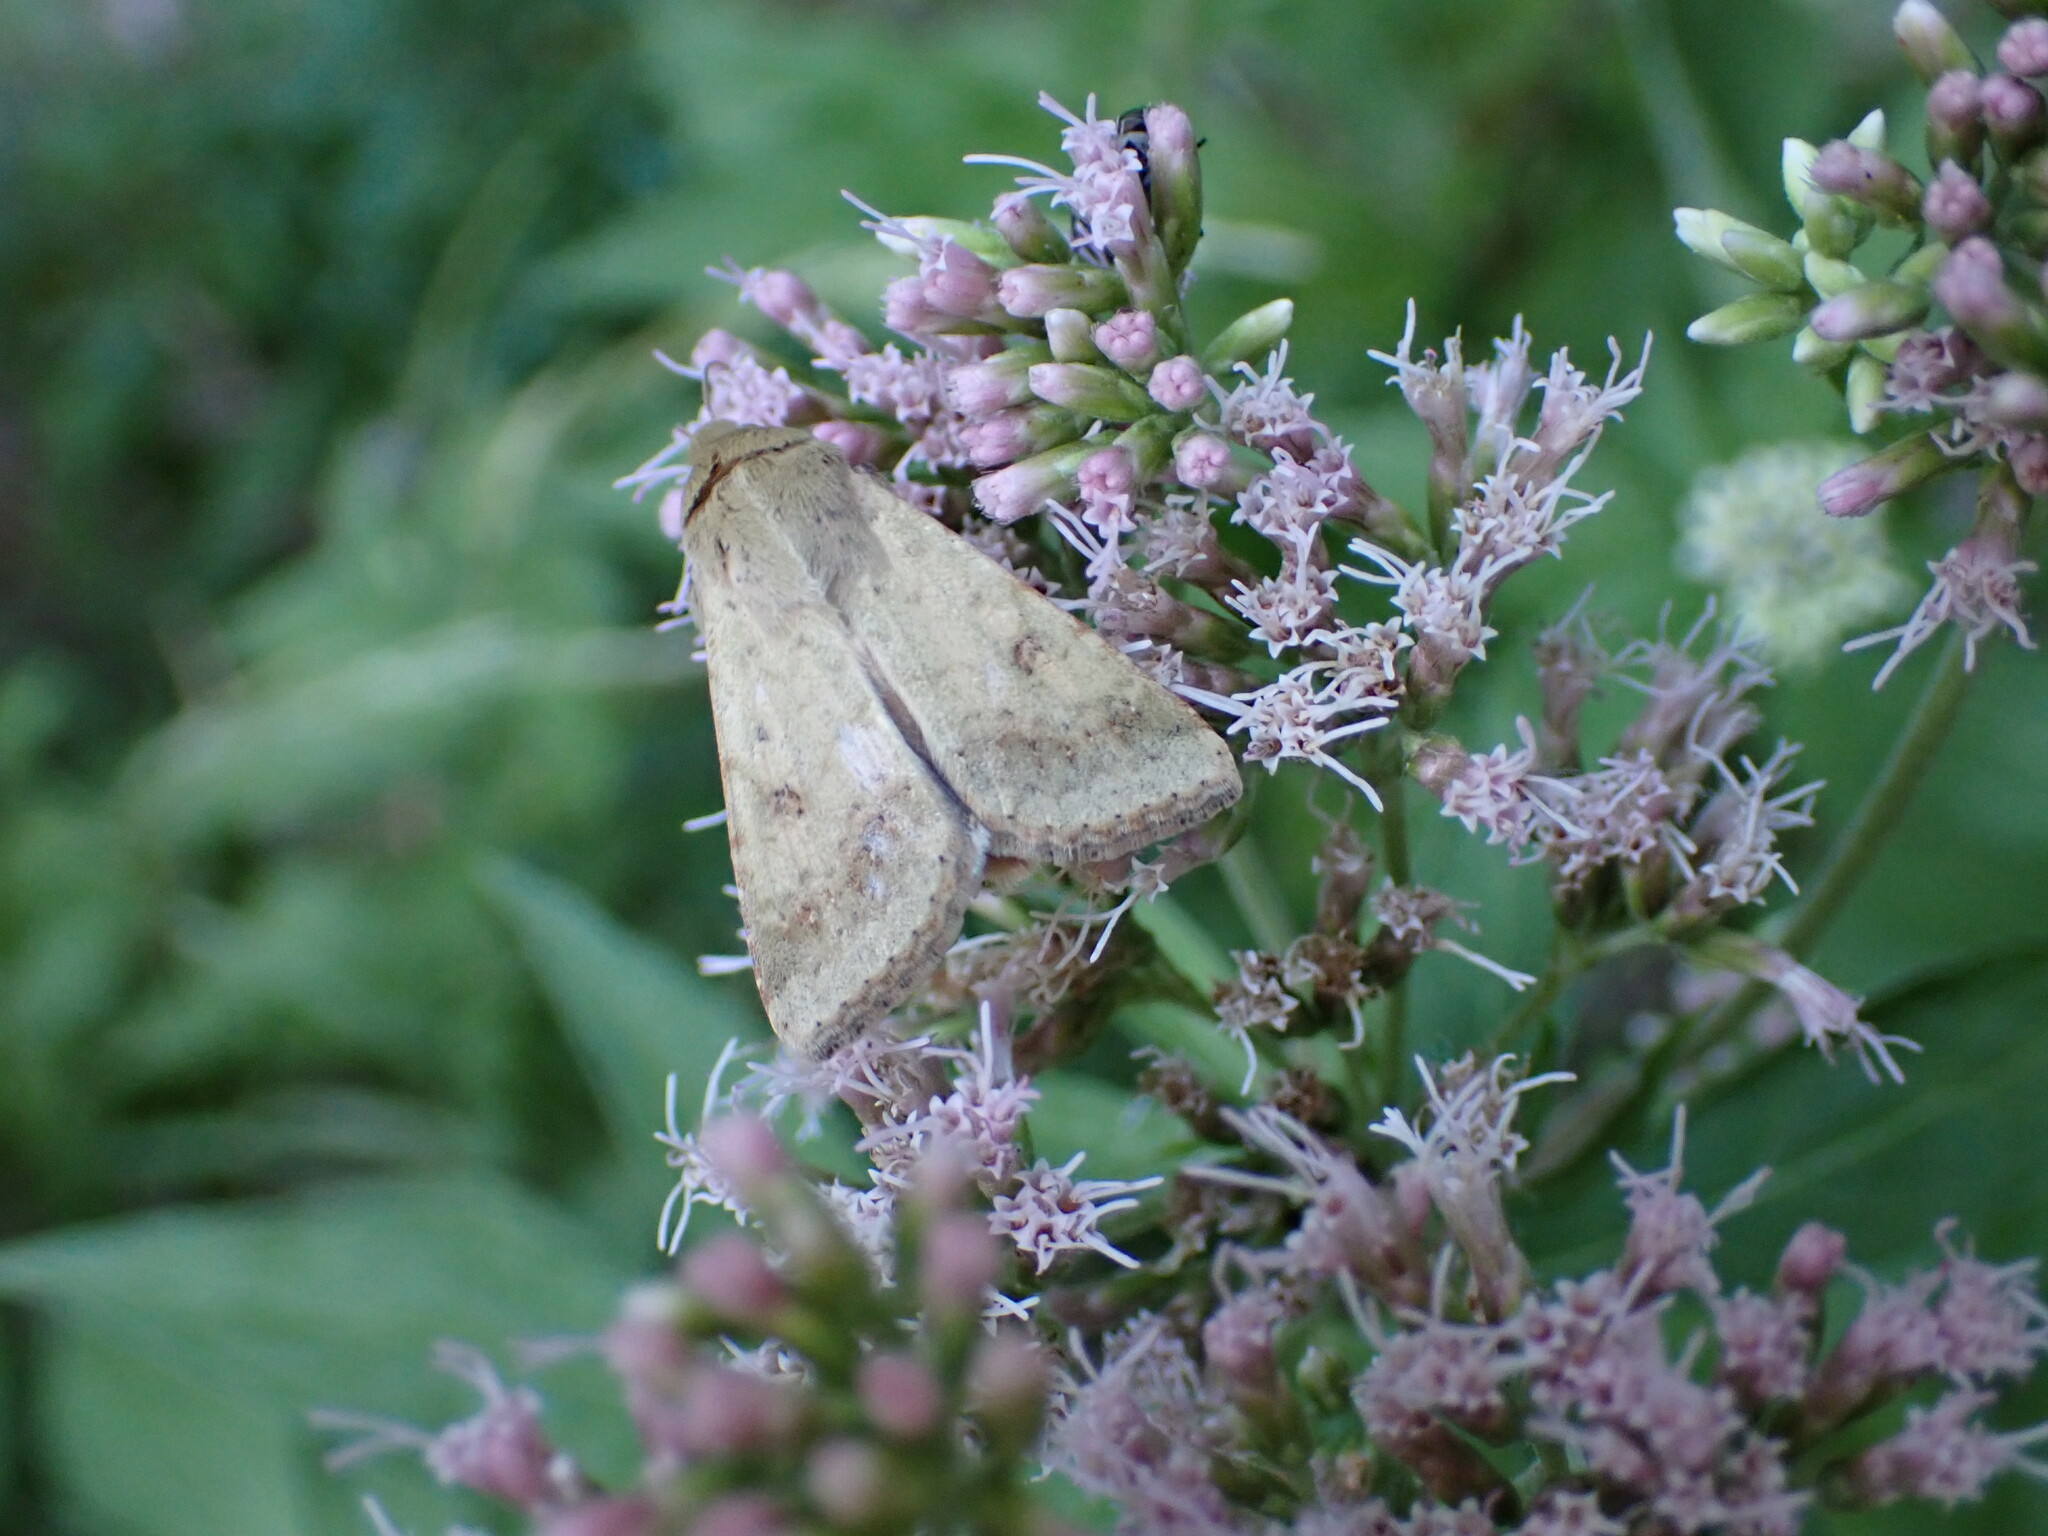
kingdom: Animalia
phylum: Arthropoda
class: Insecta
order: Lepidoptera
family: Noctuidae
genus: Helicoverpa
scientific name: Helicoverpa armigera
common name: Cotton bollworm
